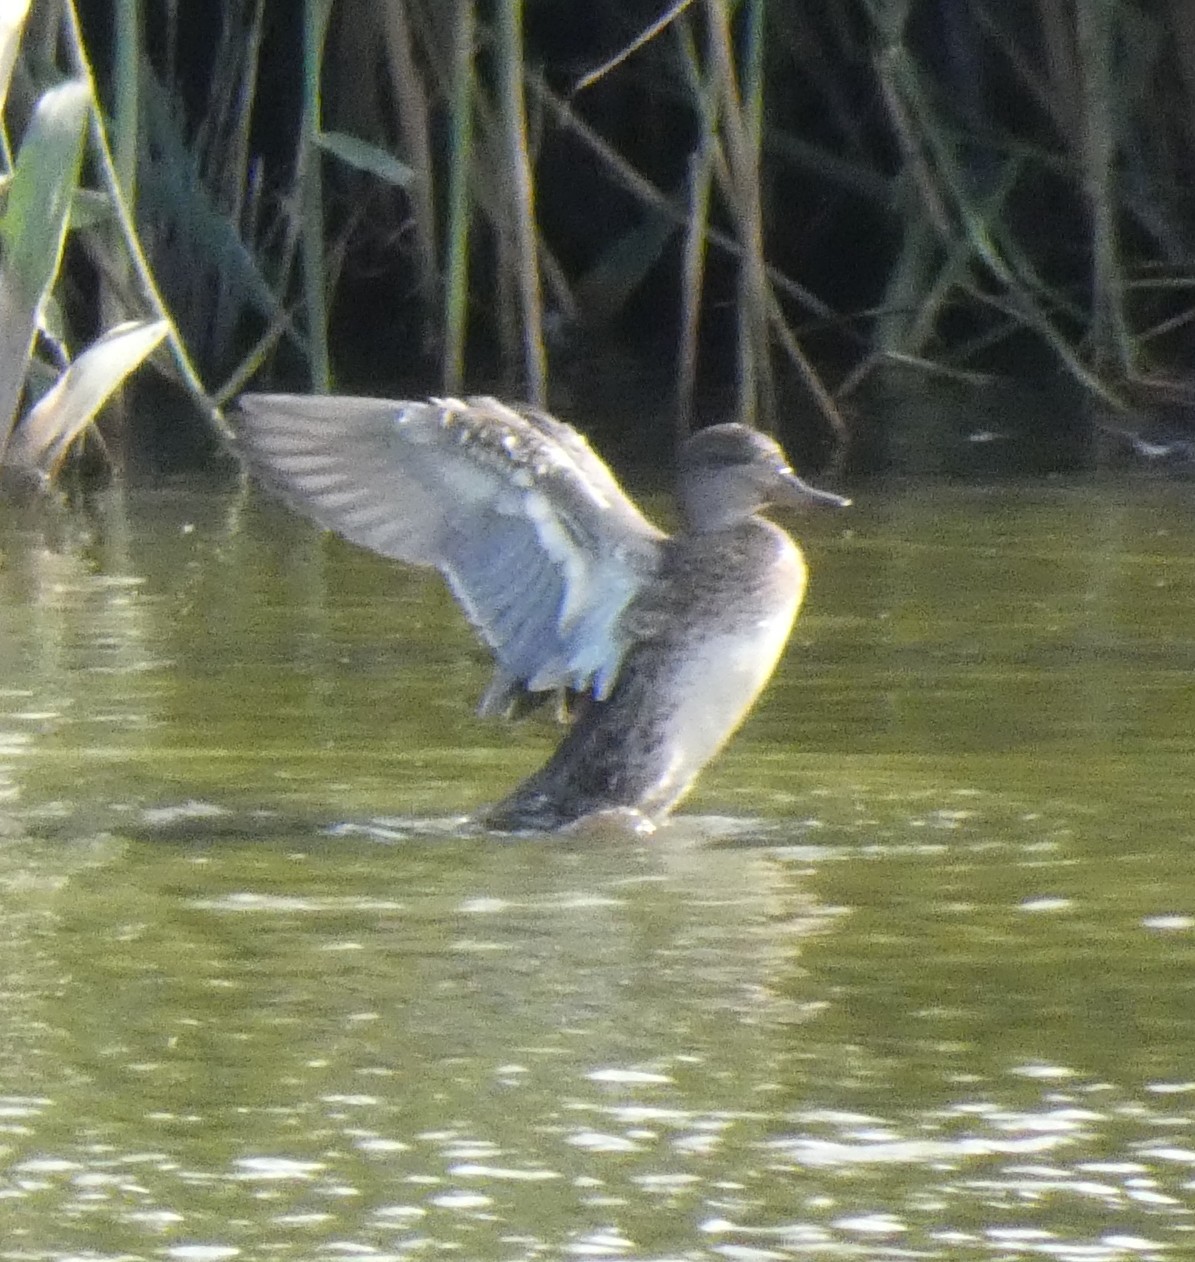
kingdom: Animalia
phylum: Chordata
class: Aves
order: Anseriformes
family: Anatidae
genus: Anas
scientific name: Anas crecca
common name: Eurasian teal
